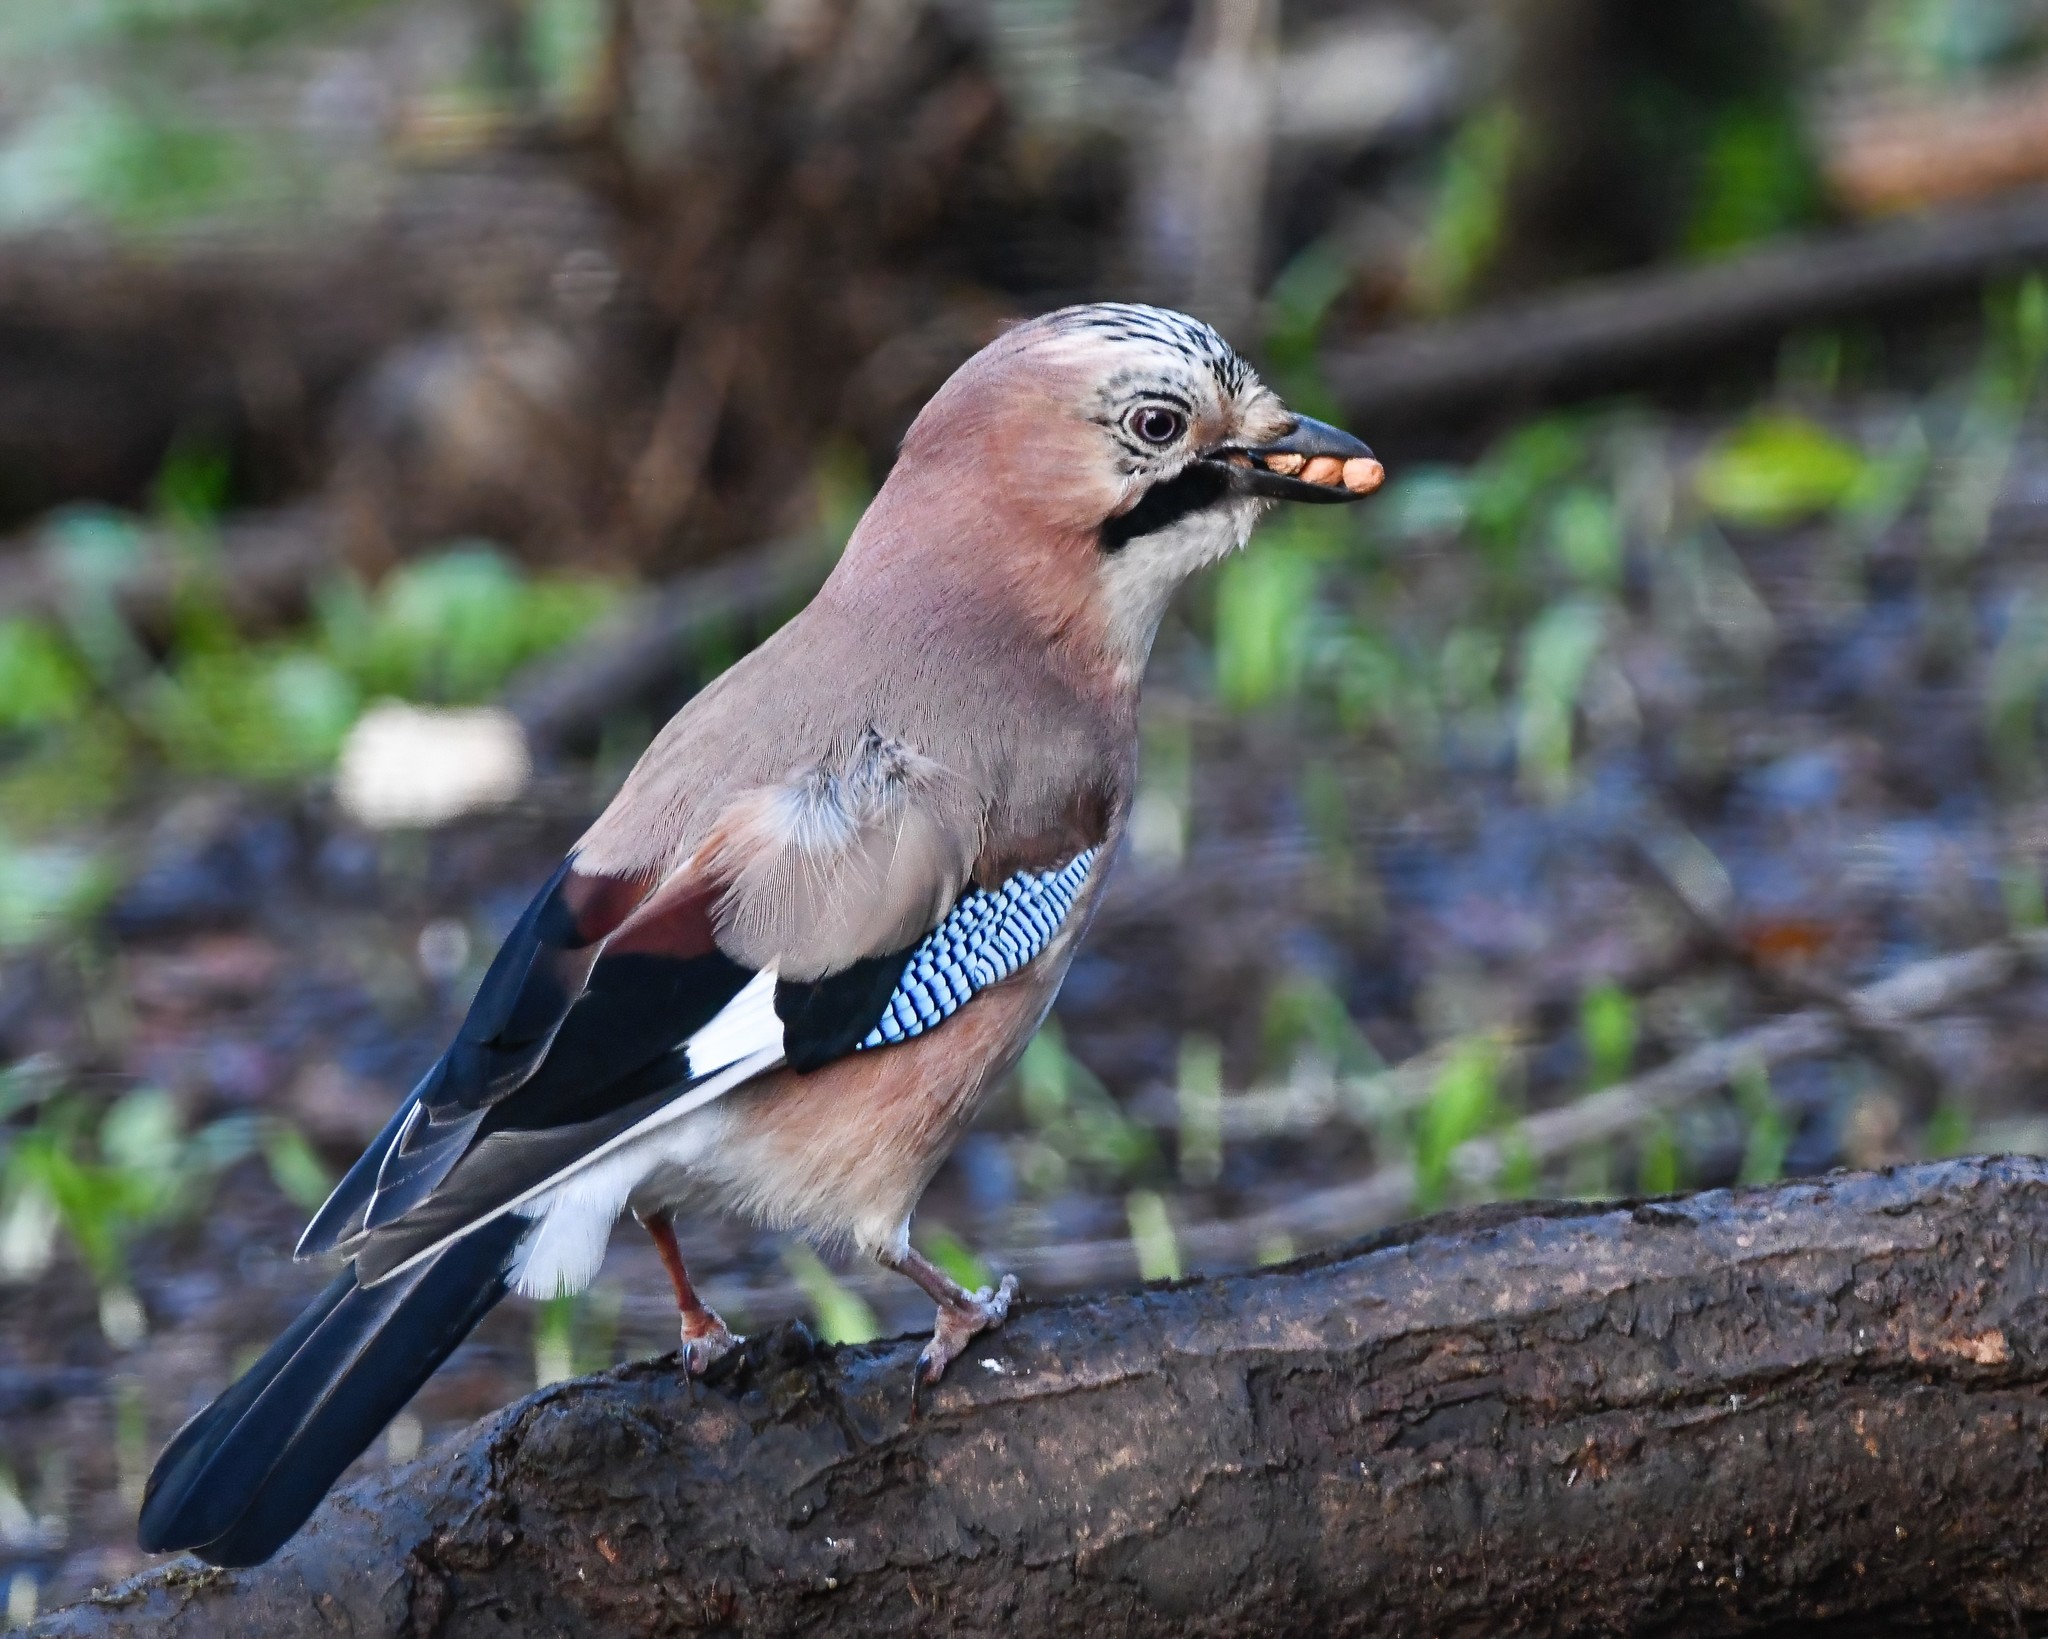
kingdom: Animalia
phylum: Chordata
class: Aves
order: Passeriformes
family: Corvidae
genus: Garrulus
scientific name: Garrulus glandarius
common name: Eurasian jay
